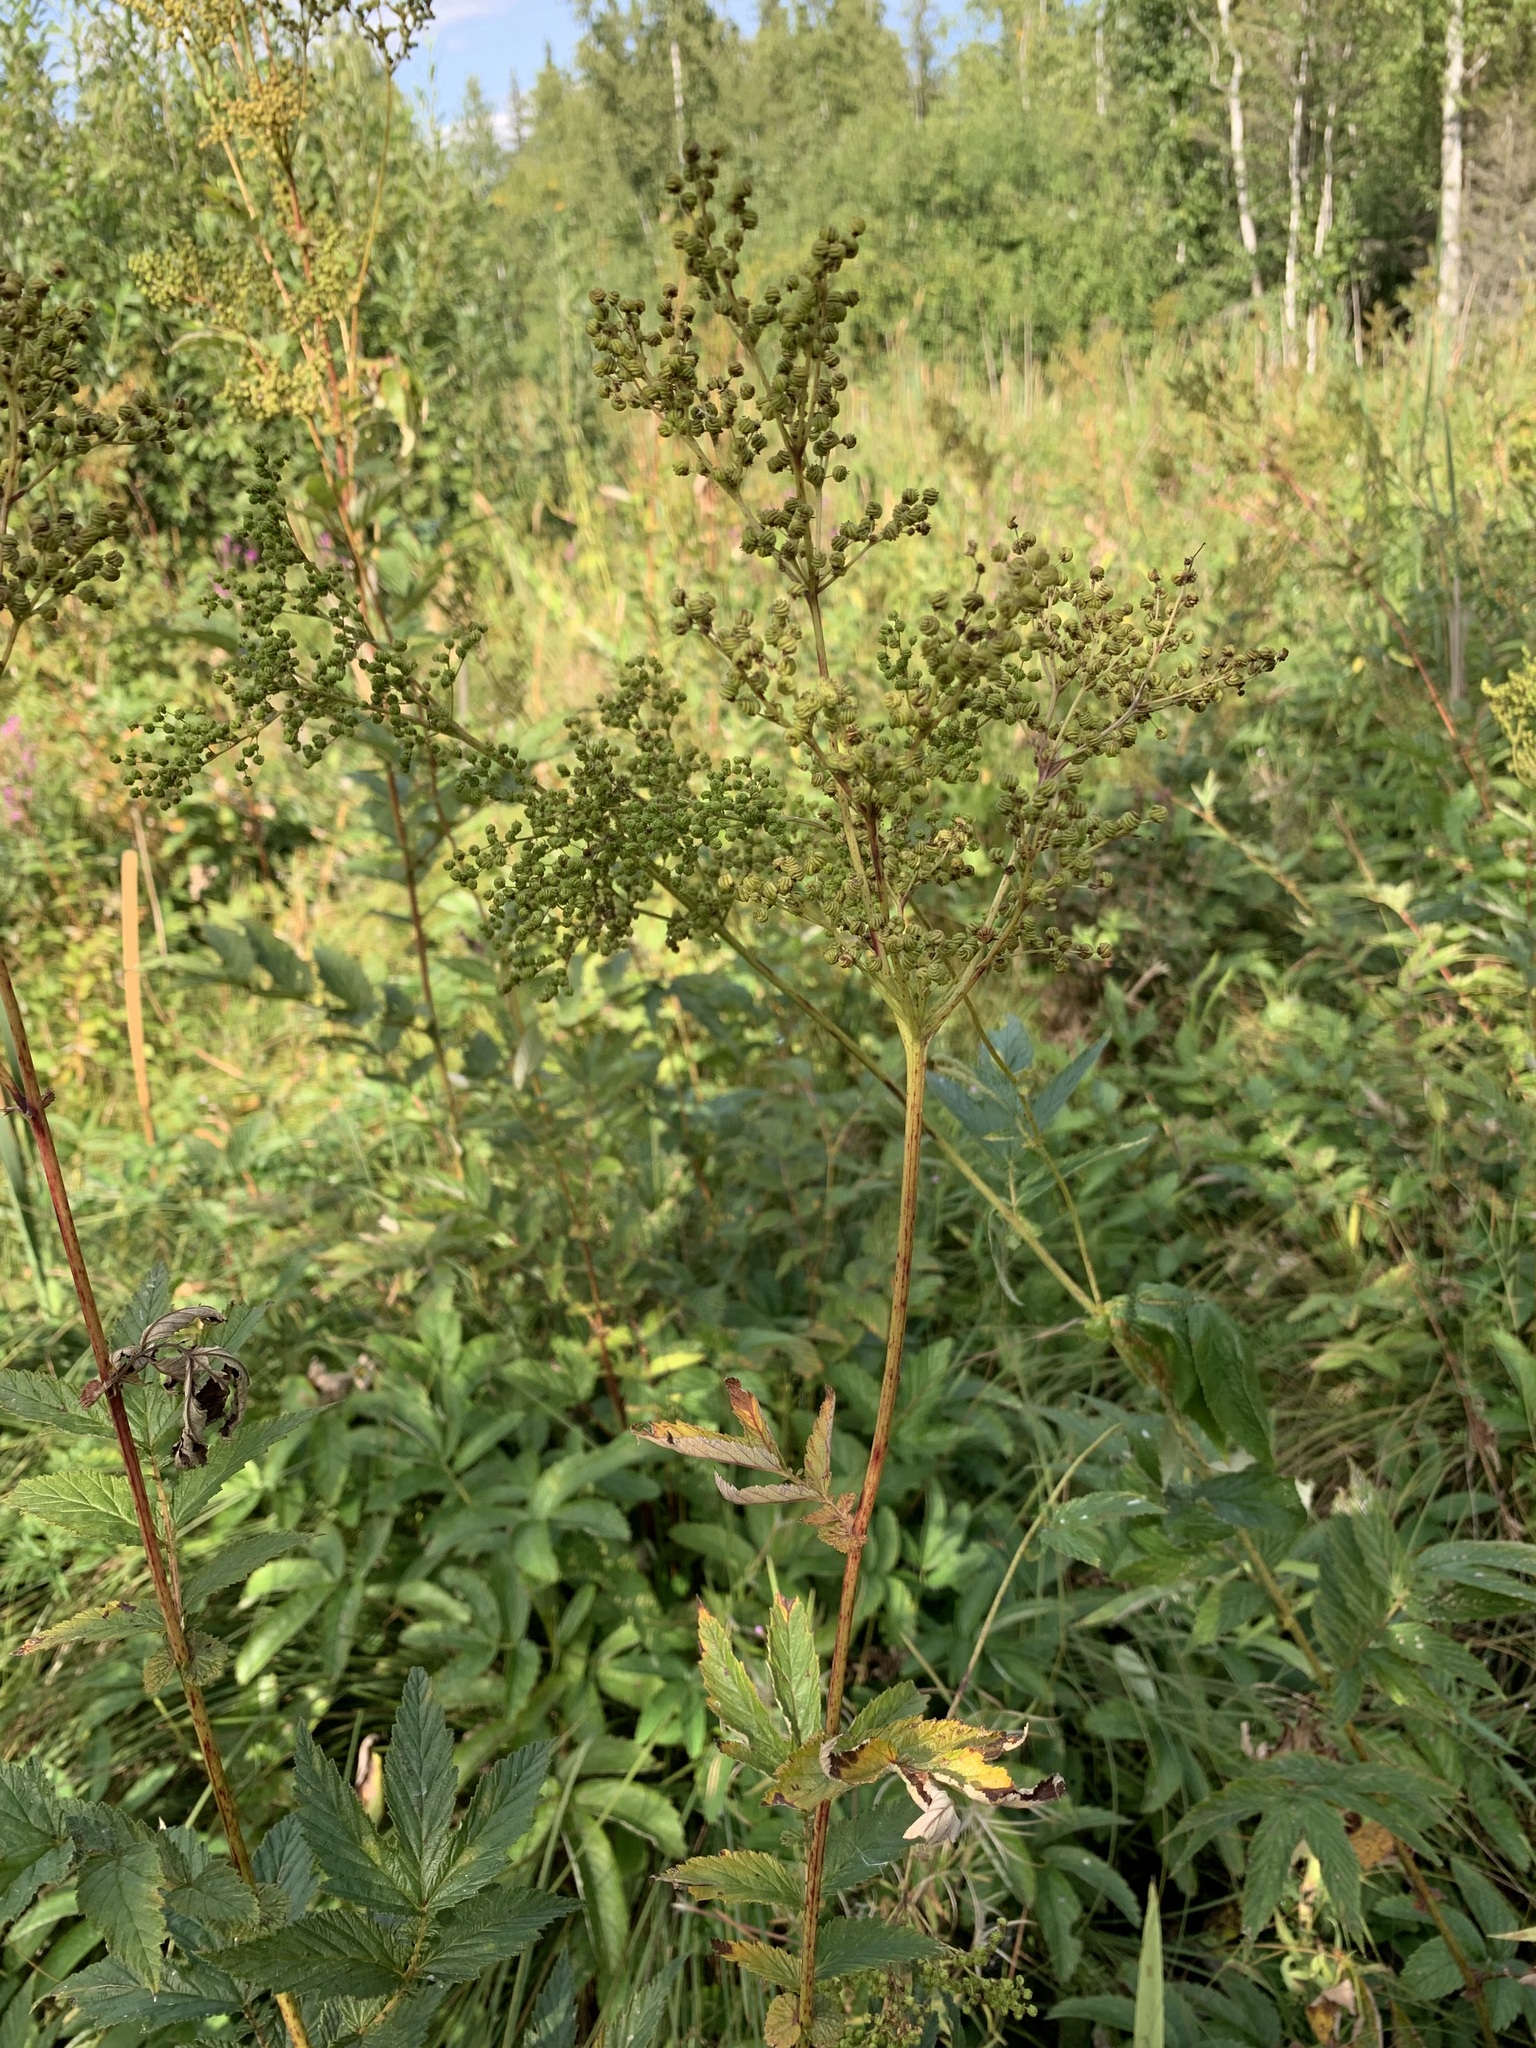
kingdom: Plantae
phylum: Tracheophyta
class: Magnoliopsida
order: Rosales
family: Rosaceae
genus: Filipendula
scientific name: Filipendula ulmaria
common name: Meadowsweet
